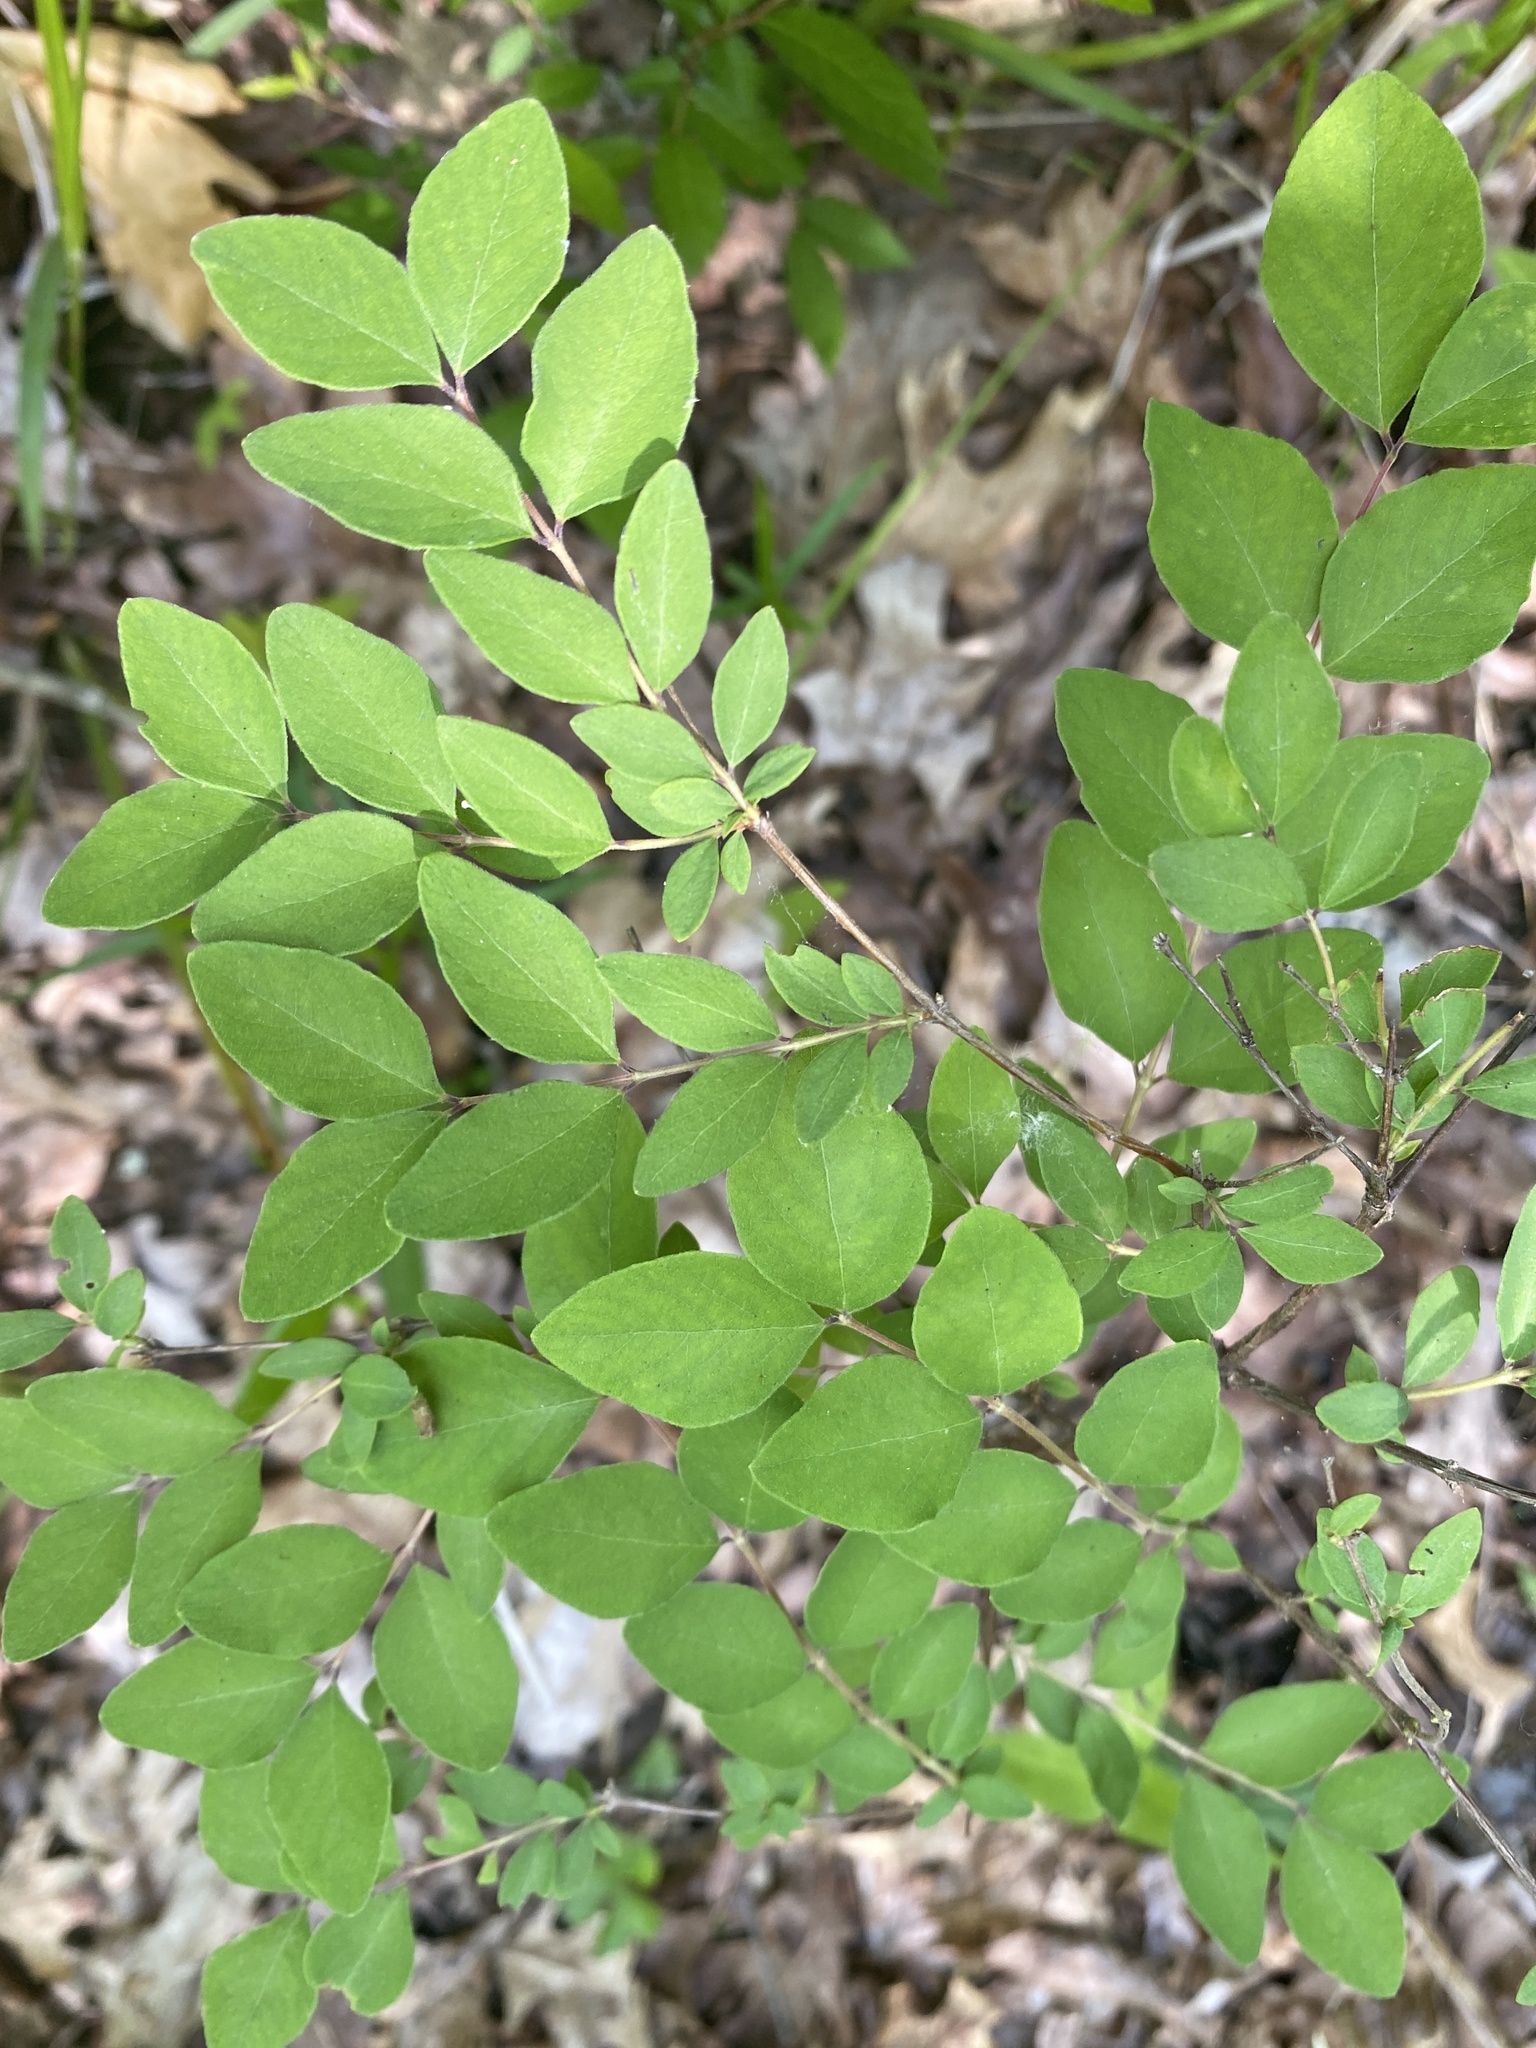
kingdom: Plantae
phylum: Tracheophyta
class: Magnoliopsida
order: Dipsacales
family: Caprifoliaceae
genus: Symphoricarpos
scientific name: Symphoricarpos orbiculatus
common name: Coralberry
